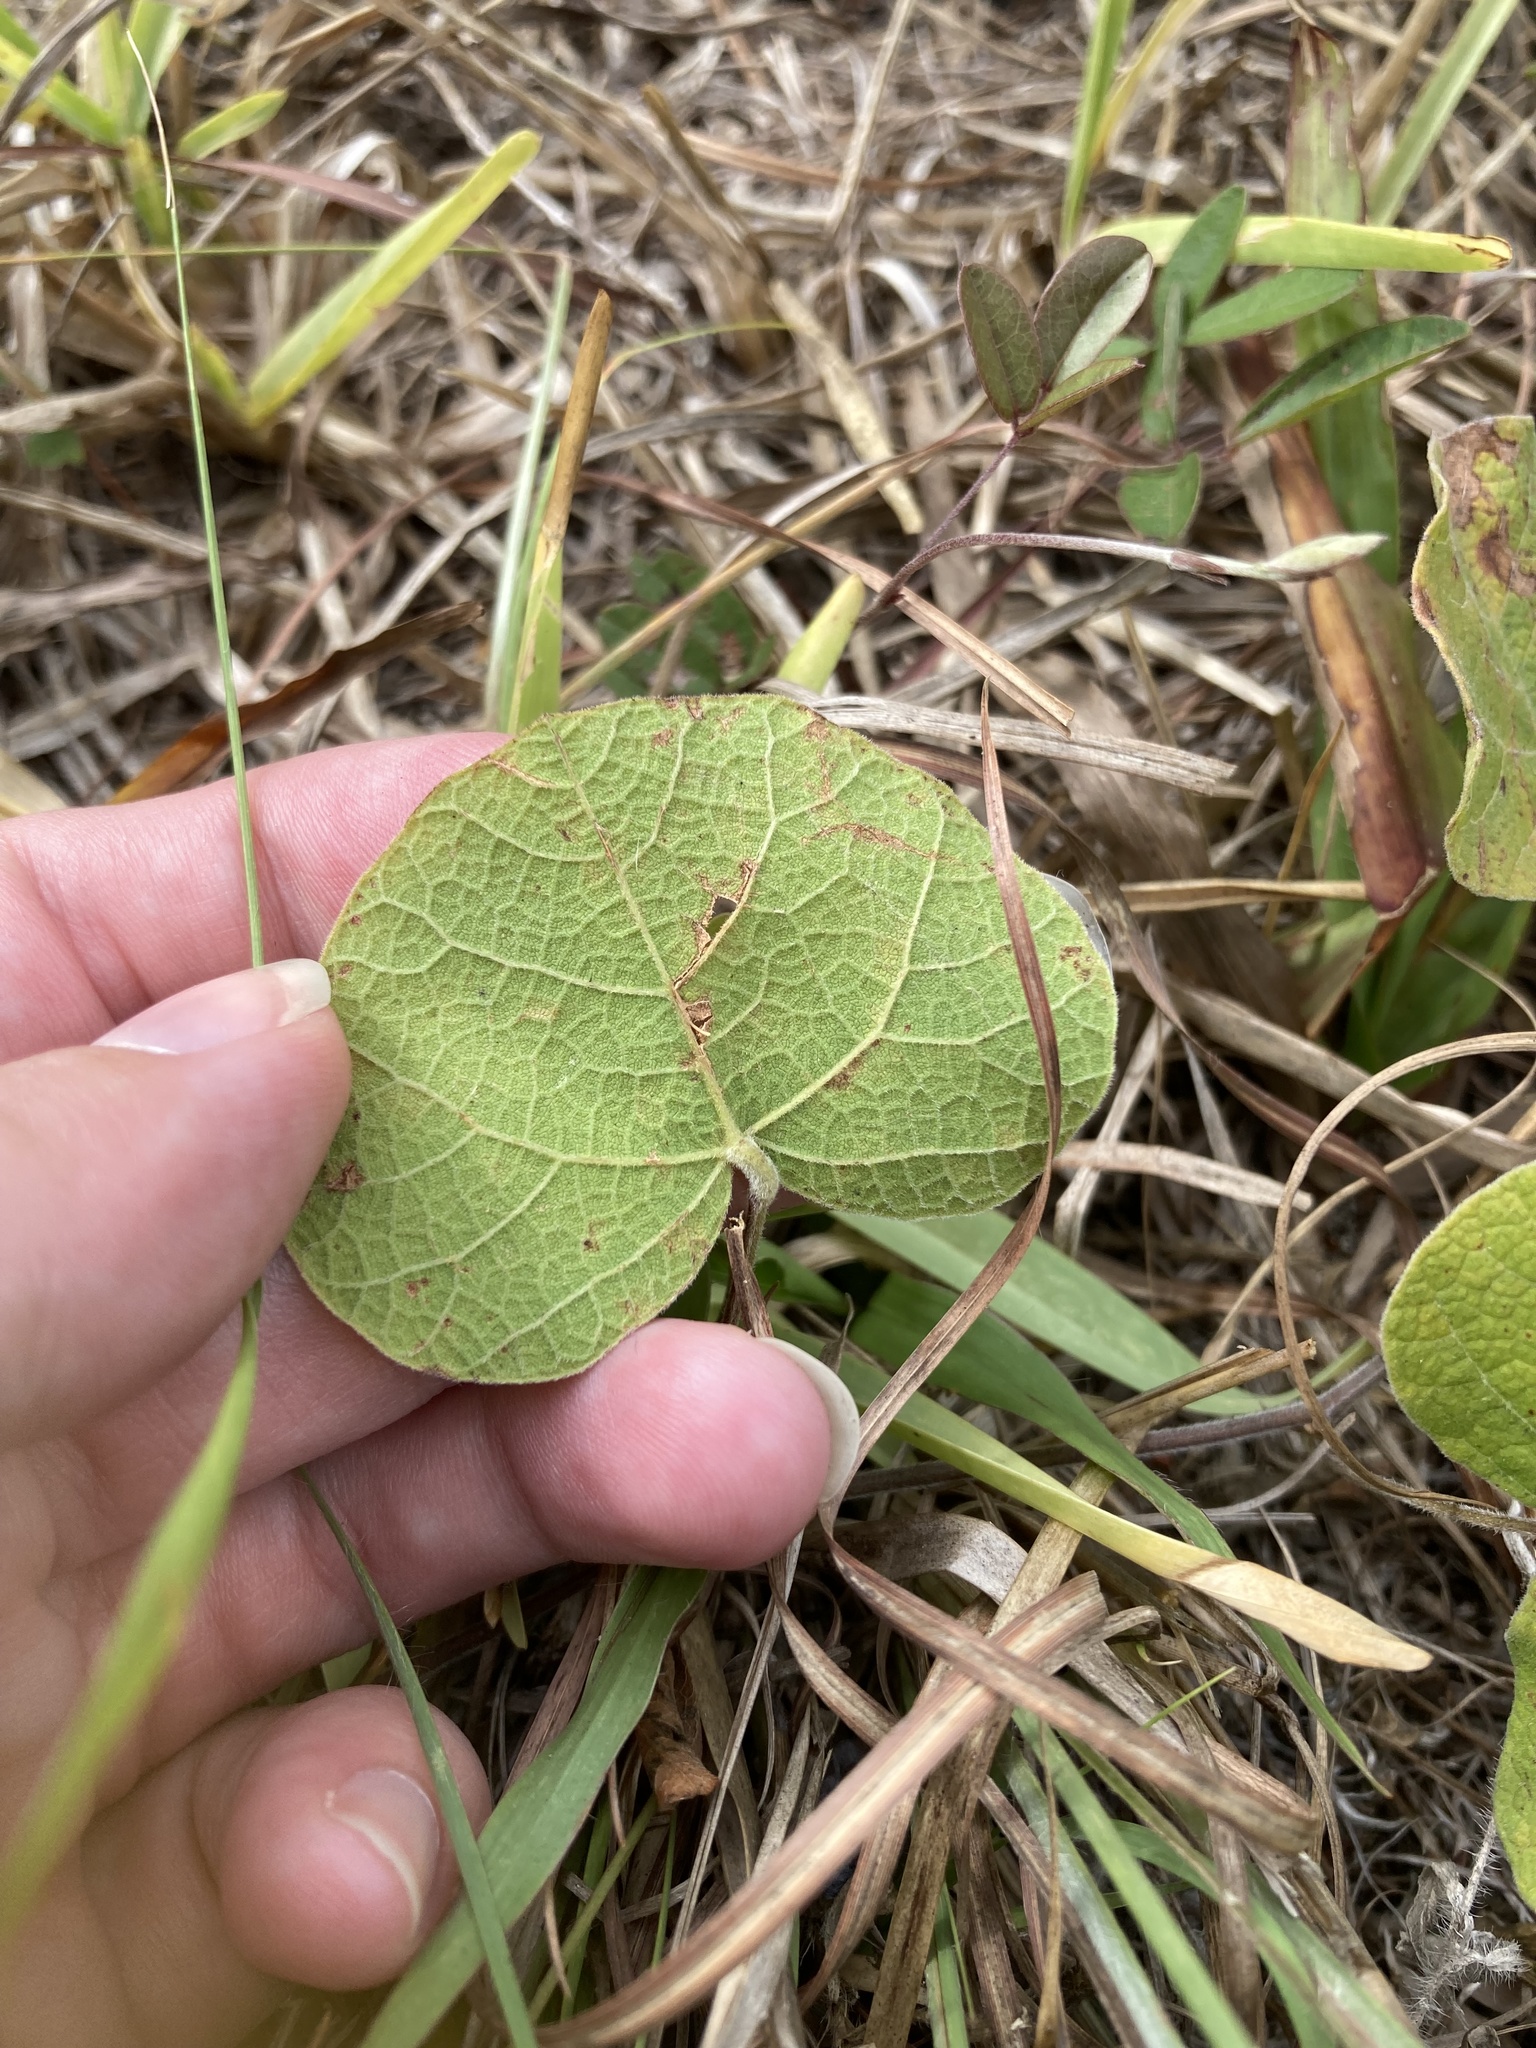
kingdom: Plantae
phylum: Tracheophyta
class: Magnoliopsida
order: Fabales
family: Fabaceae
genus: Rhynchosia
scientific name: Rhynchosia michauxii
